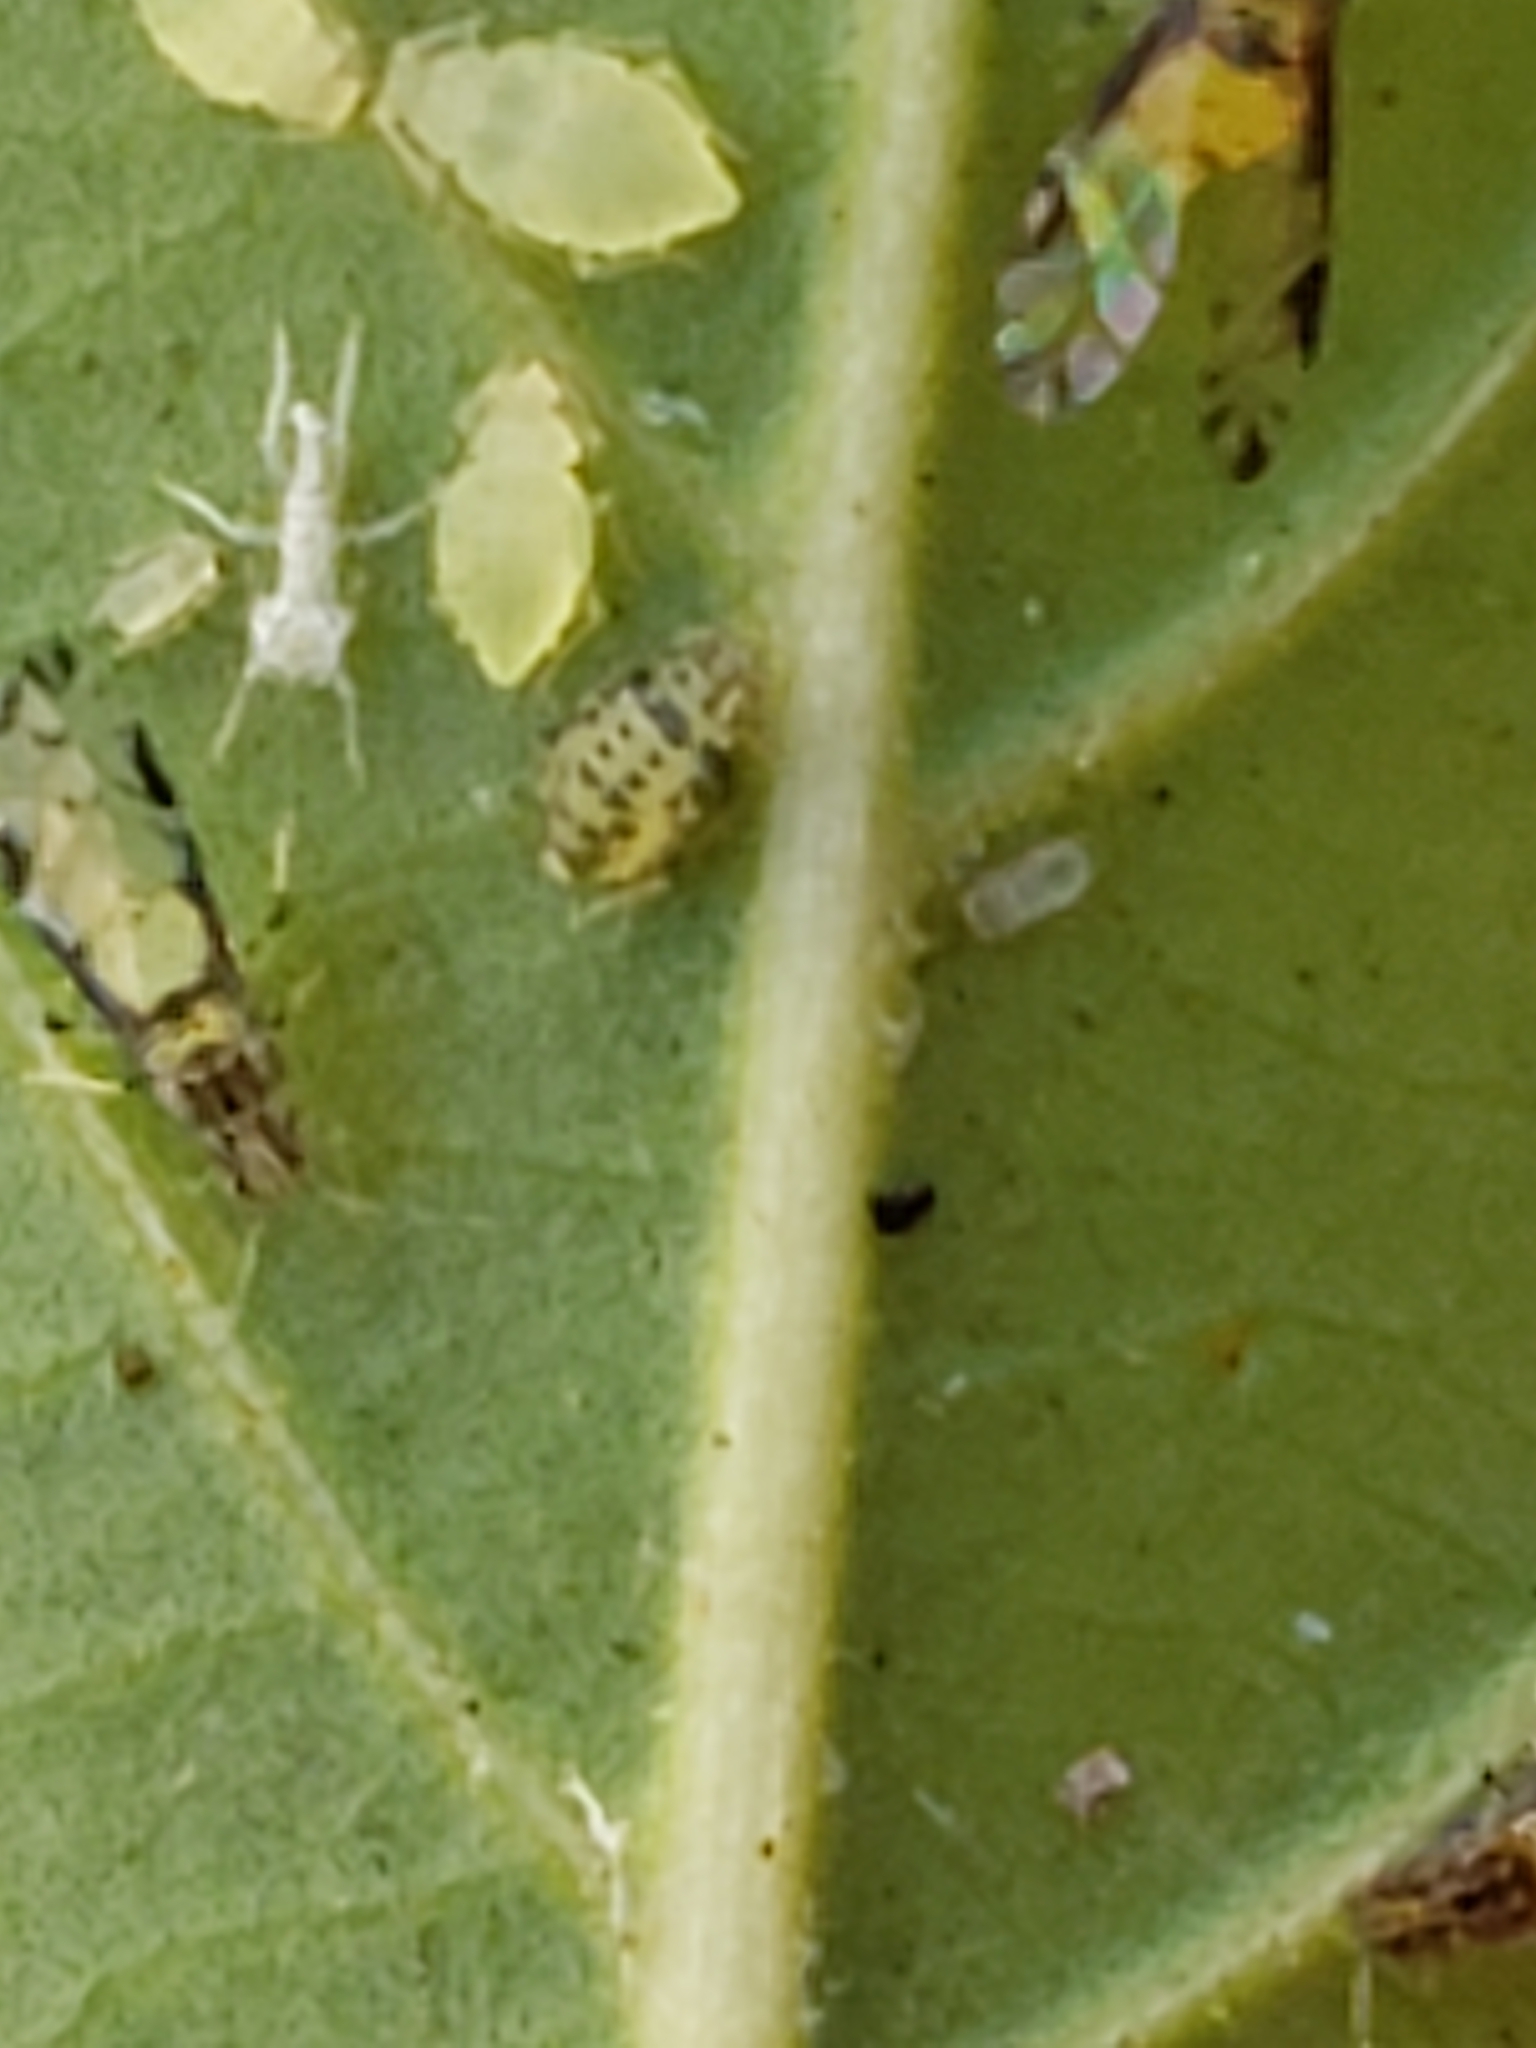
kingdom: Animalia
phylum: Arthropoda
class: Insecta
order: Hemiptera
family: Aphididae
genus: Sarucallis
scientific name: Sarucallis kahawaluokalani
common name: Crapemyrtle aphid
